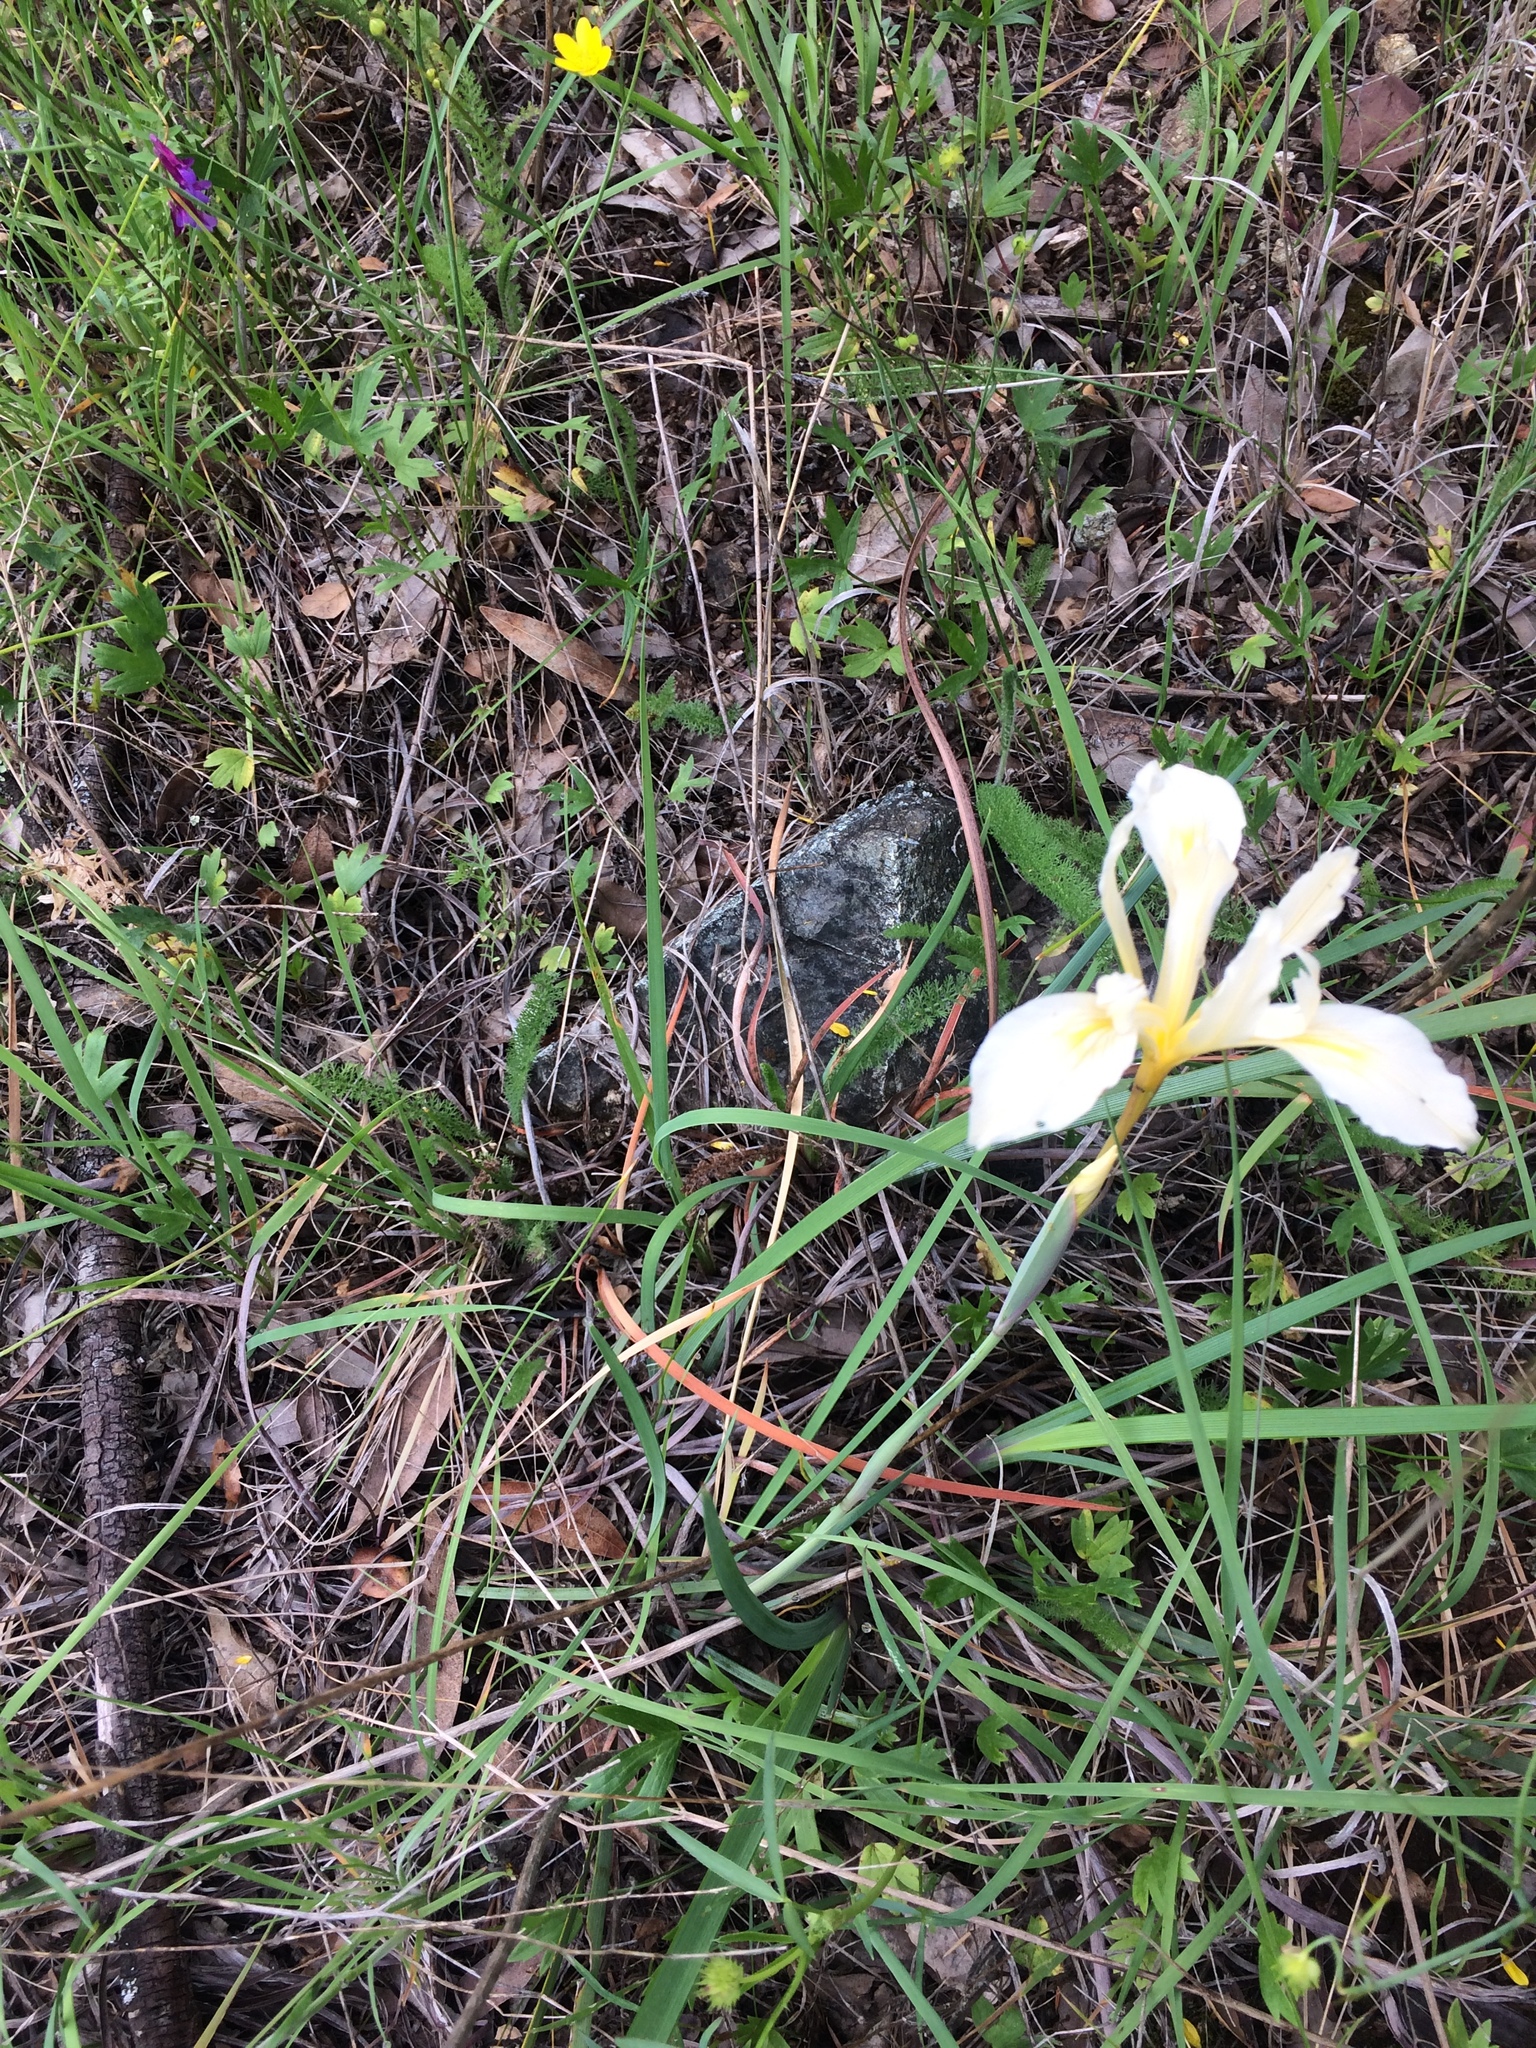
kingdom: Plantae
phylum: Tracheophyta
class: Liliopsida
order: Asparagales
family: Iridaceae
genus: Iris
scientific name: Iris fernaldii
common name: Fernald's iris
